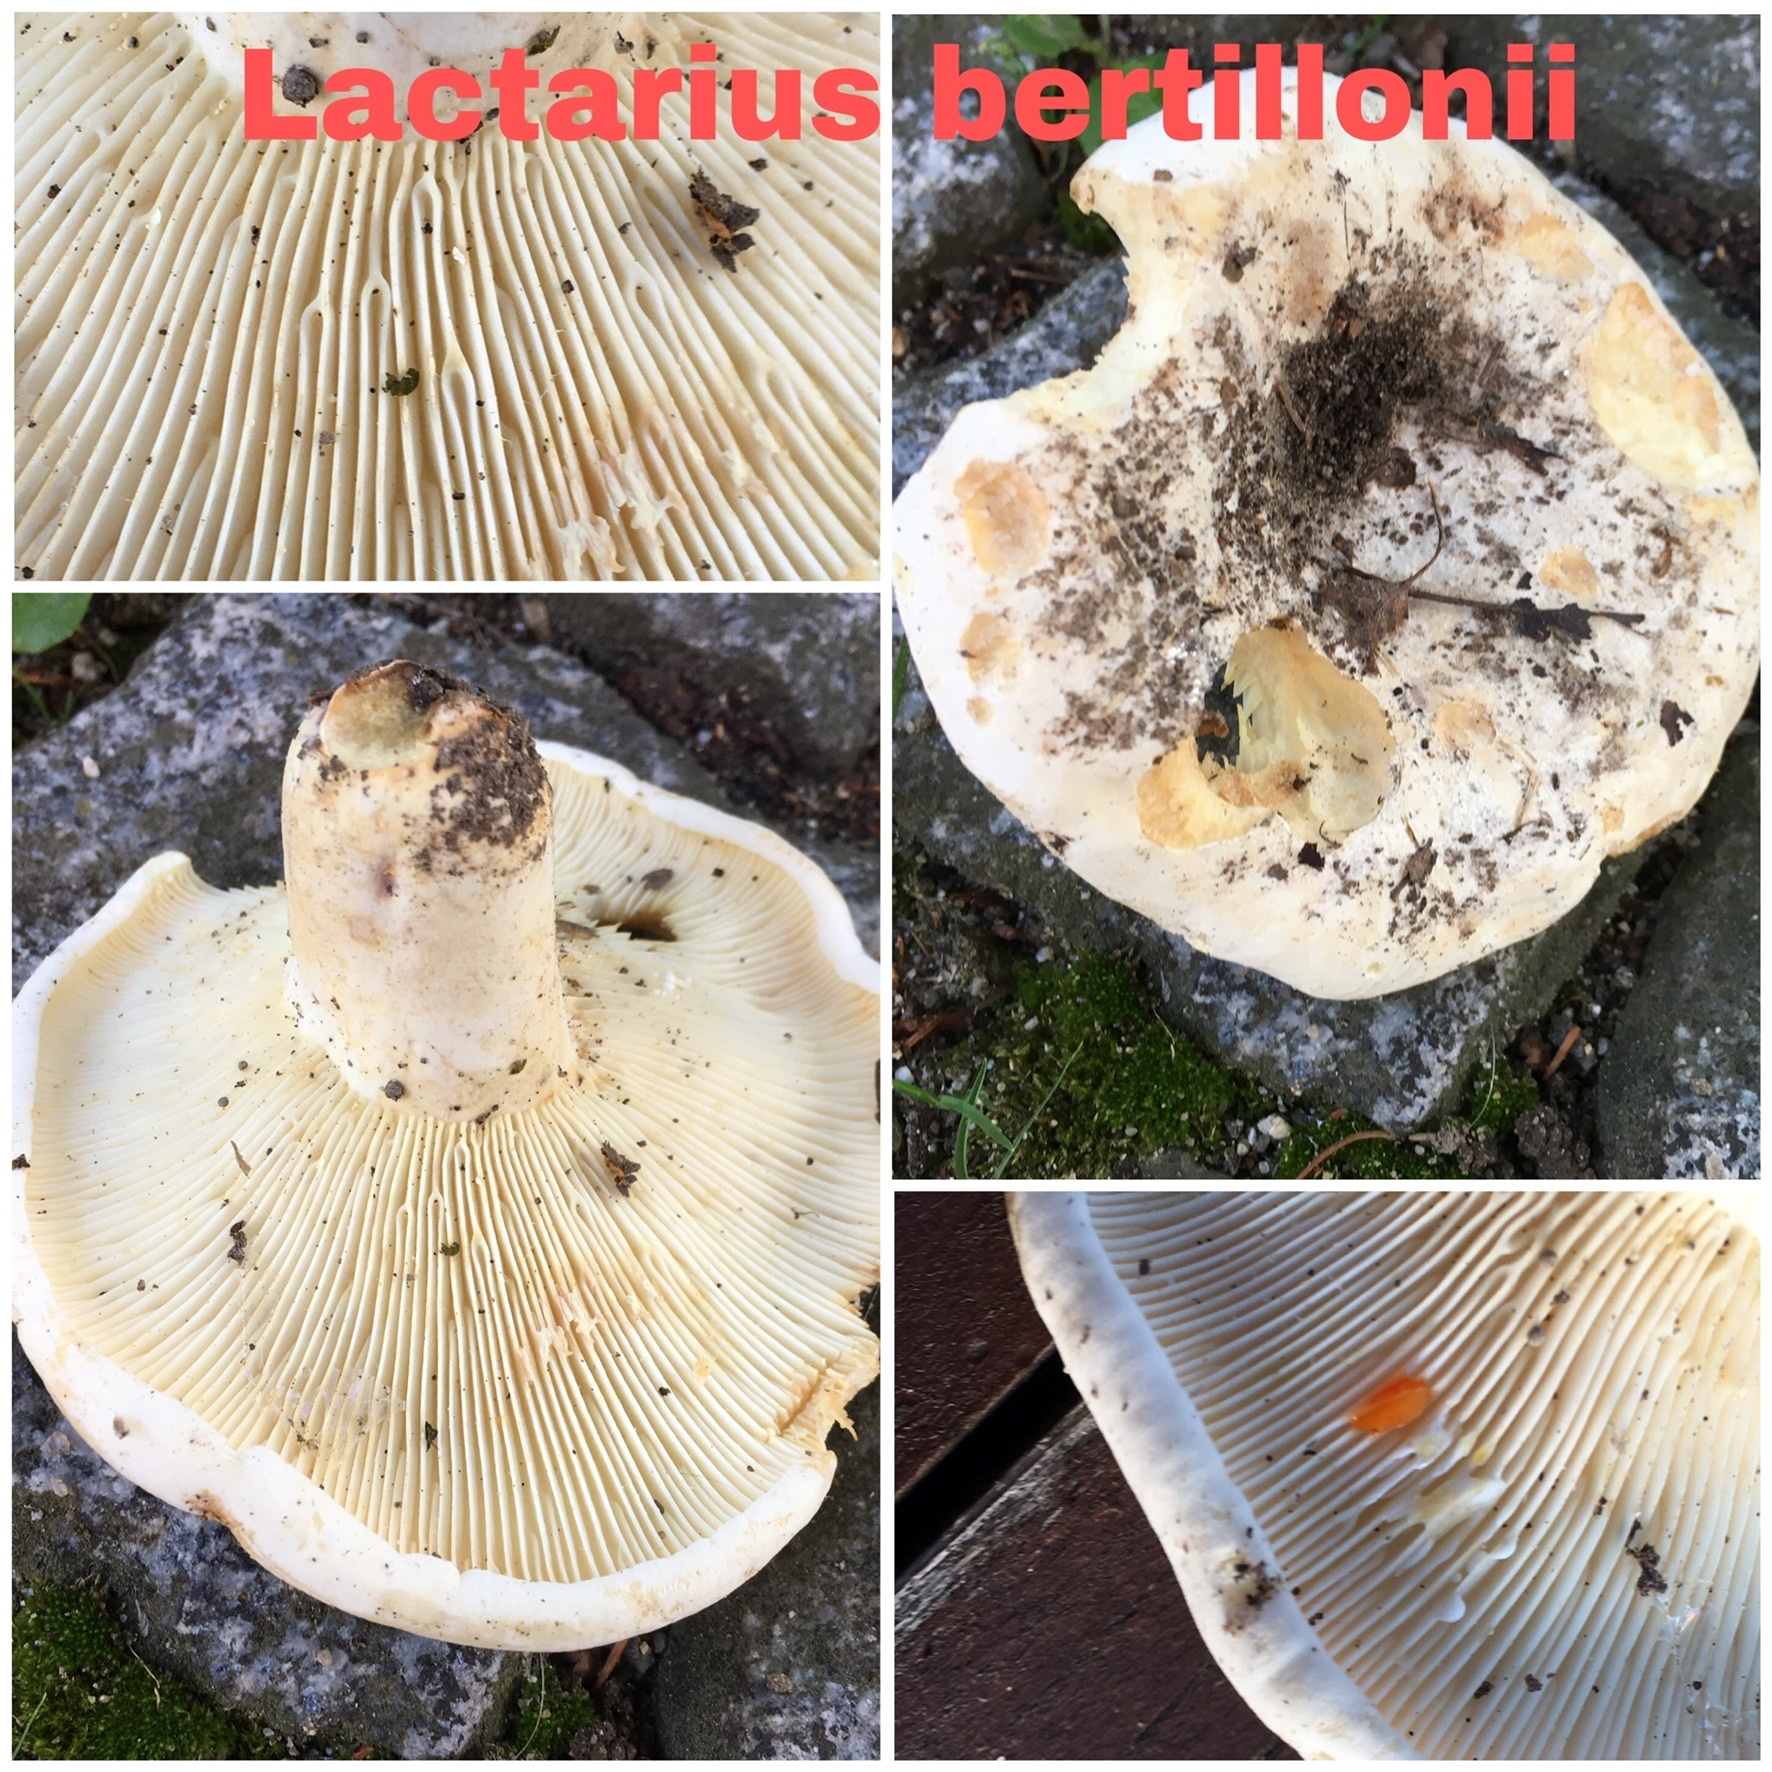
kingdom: Fungi
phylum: Basidiomycota
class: Agaricomycetes
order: Russulales
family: Russulaceae
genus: Lactifluus
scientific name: Lactifluus bertillonii
